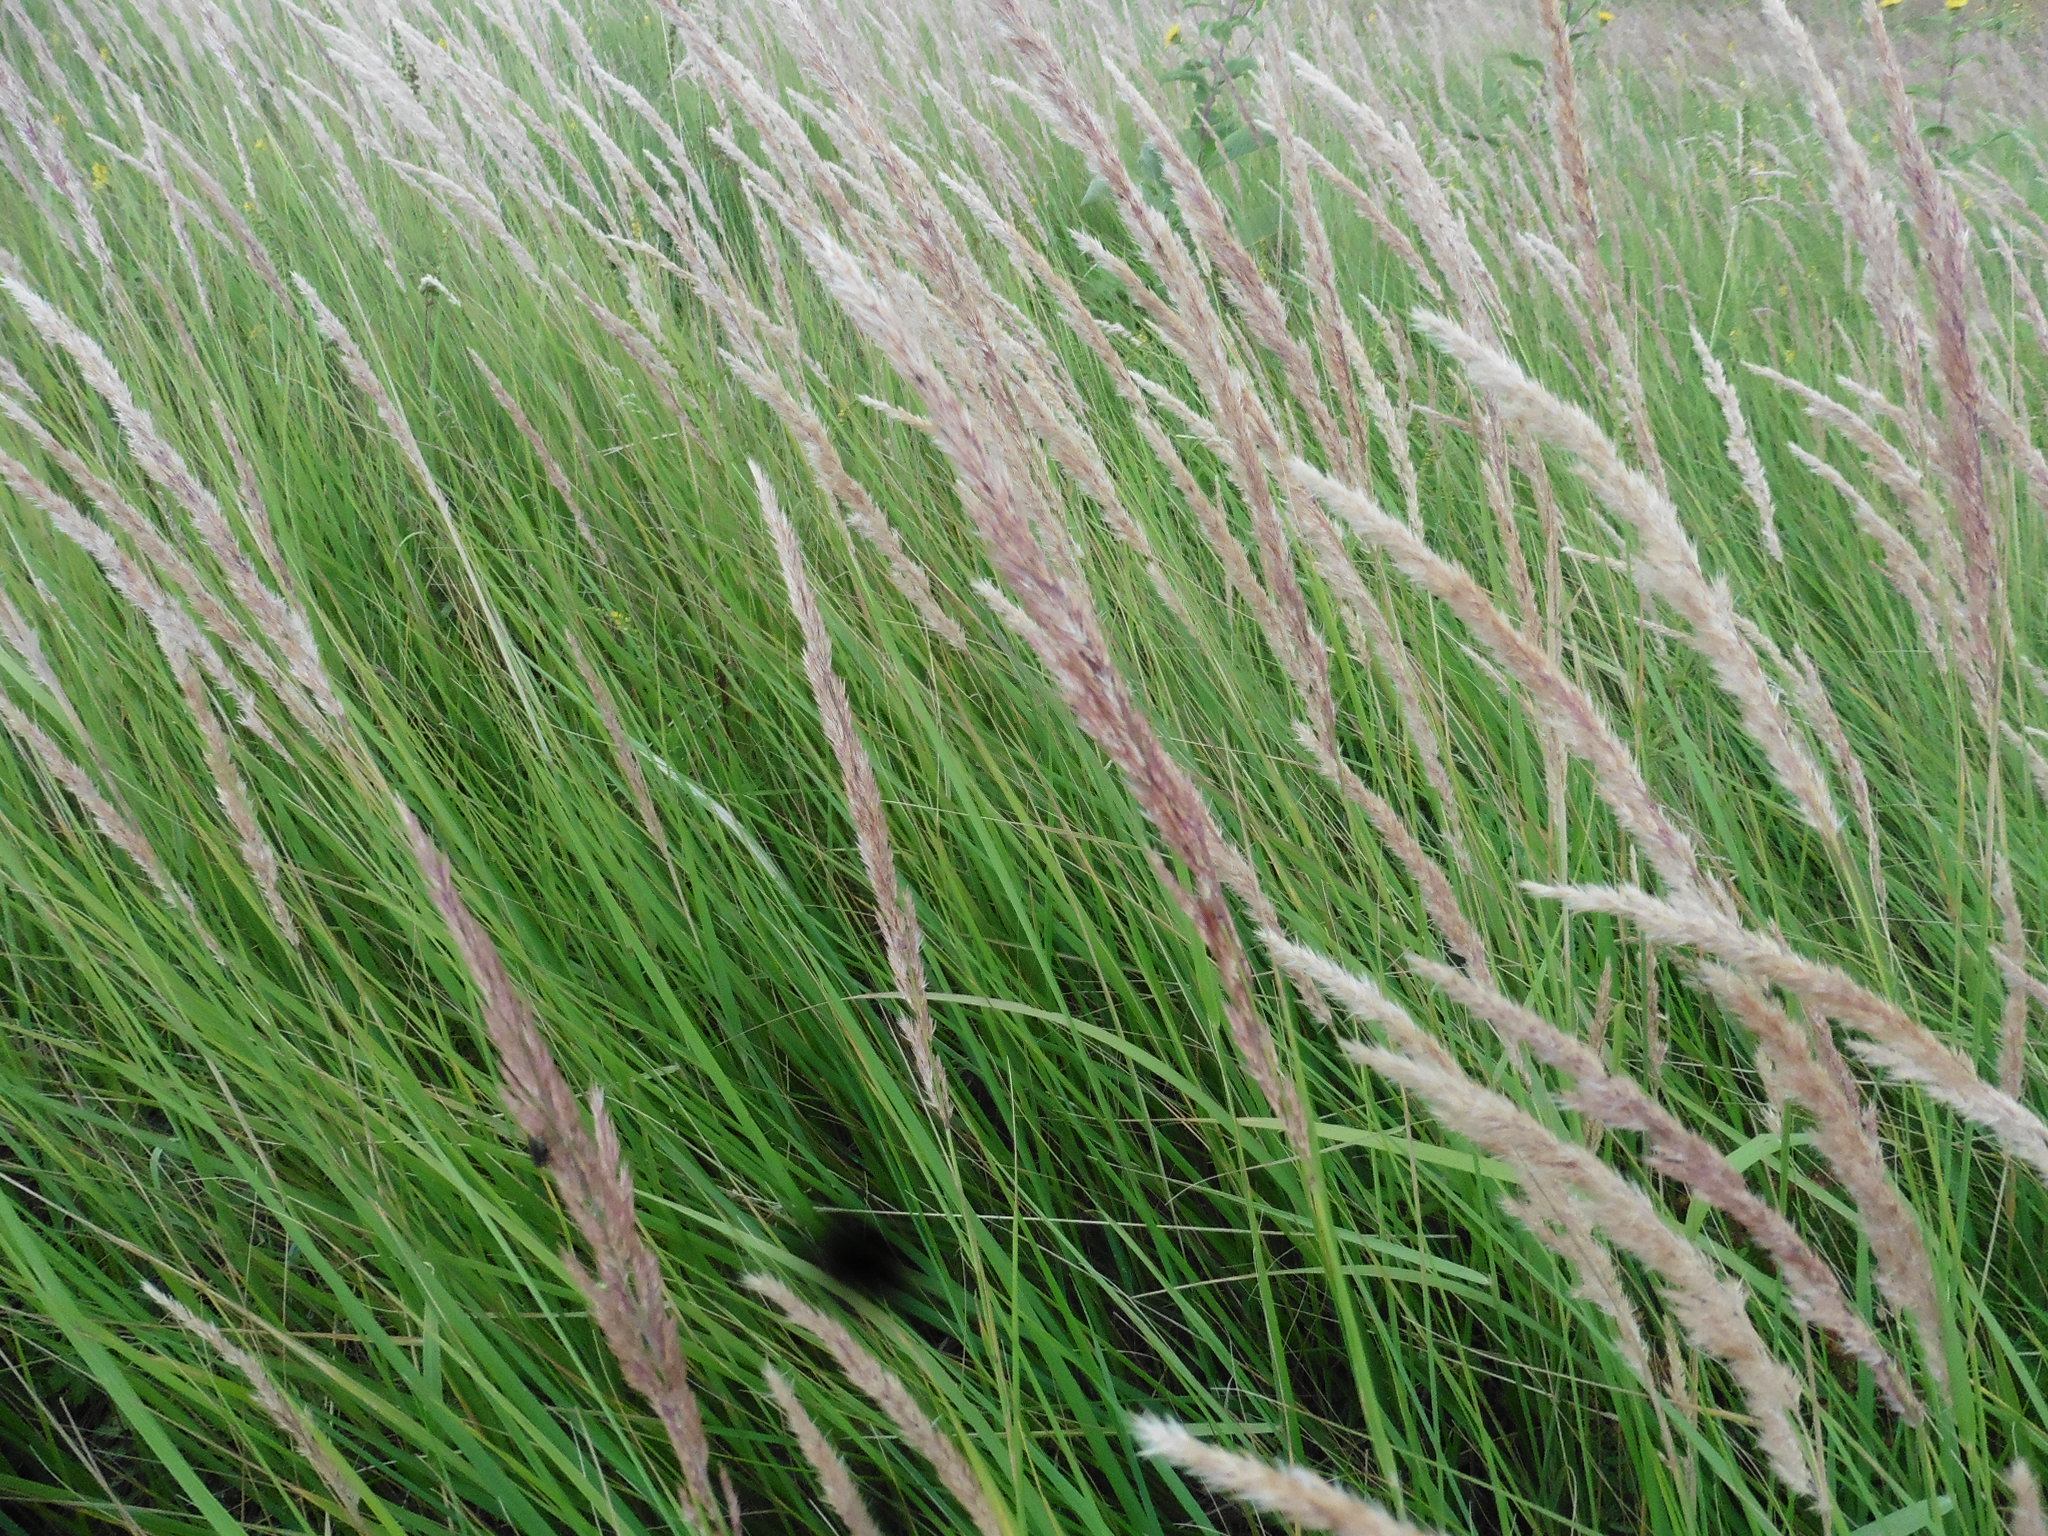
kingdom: Plantae
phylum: Tracheophyta
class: Liliopsida
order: Poales
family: Poaceae
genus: Calamagrostis
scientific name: Calamagrostis epigejos
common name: Wood small-reed
